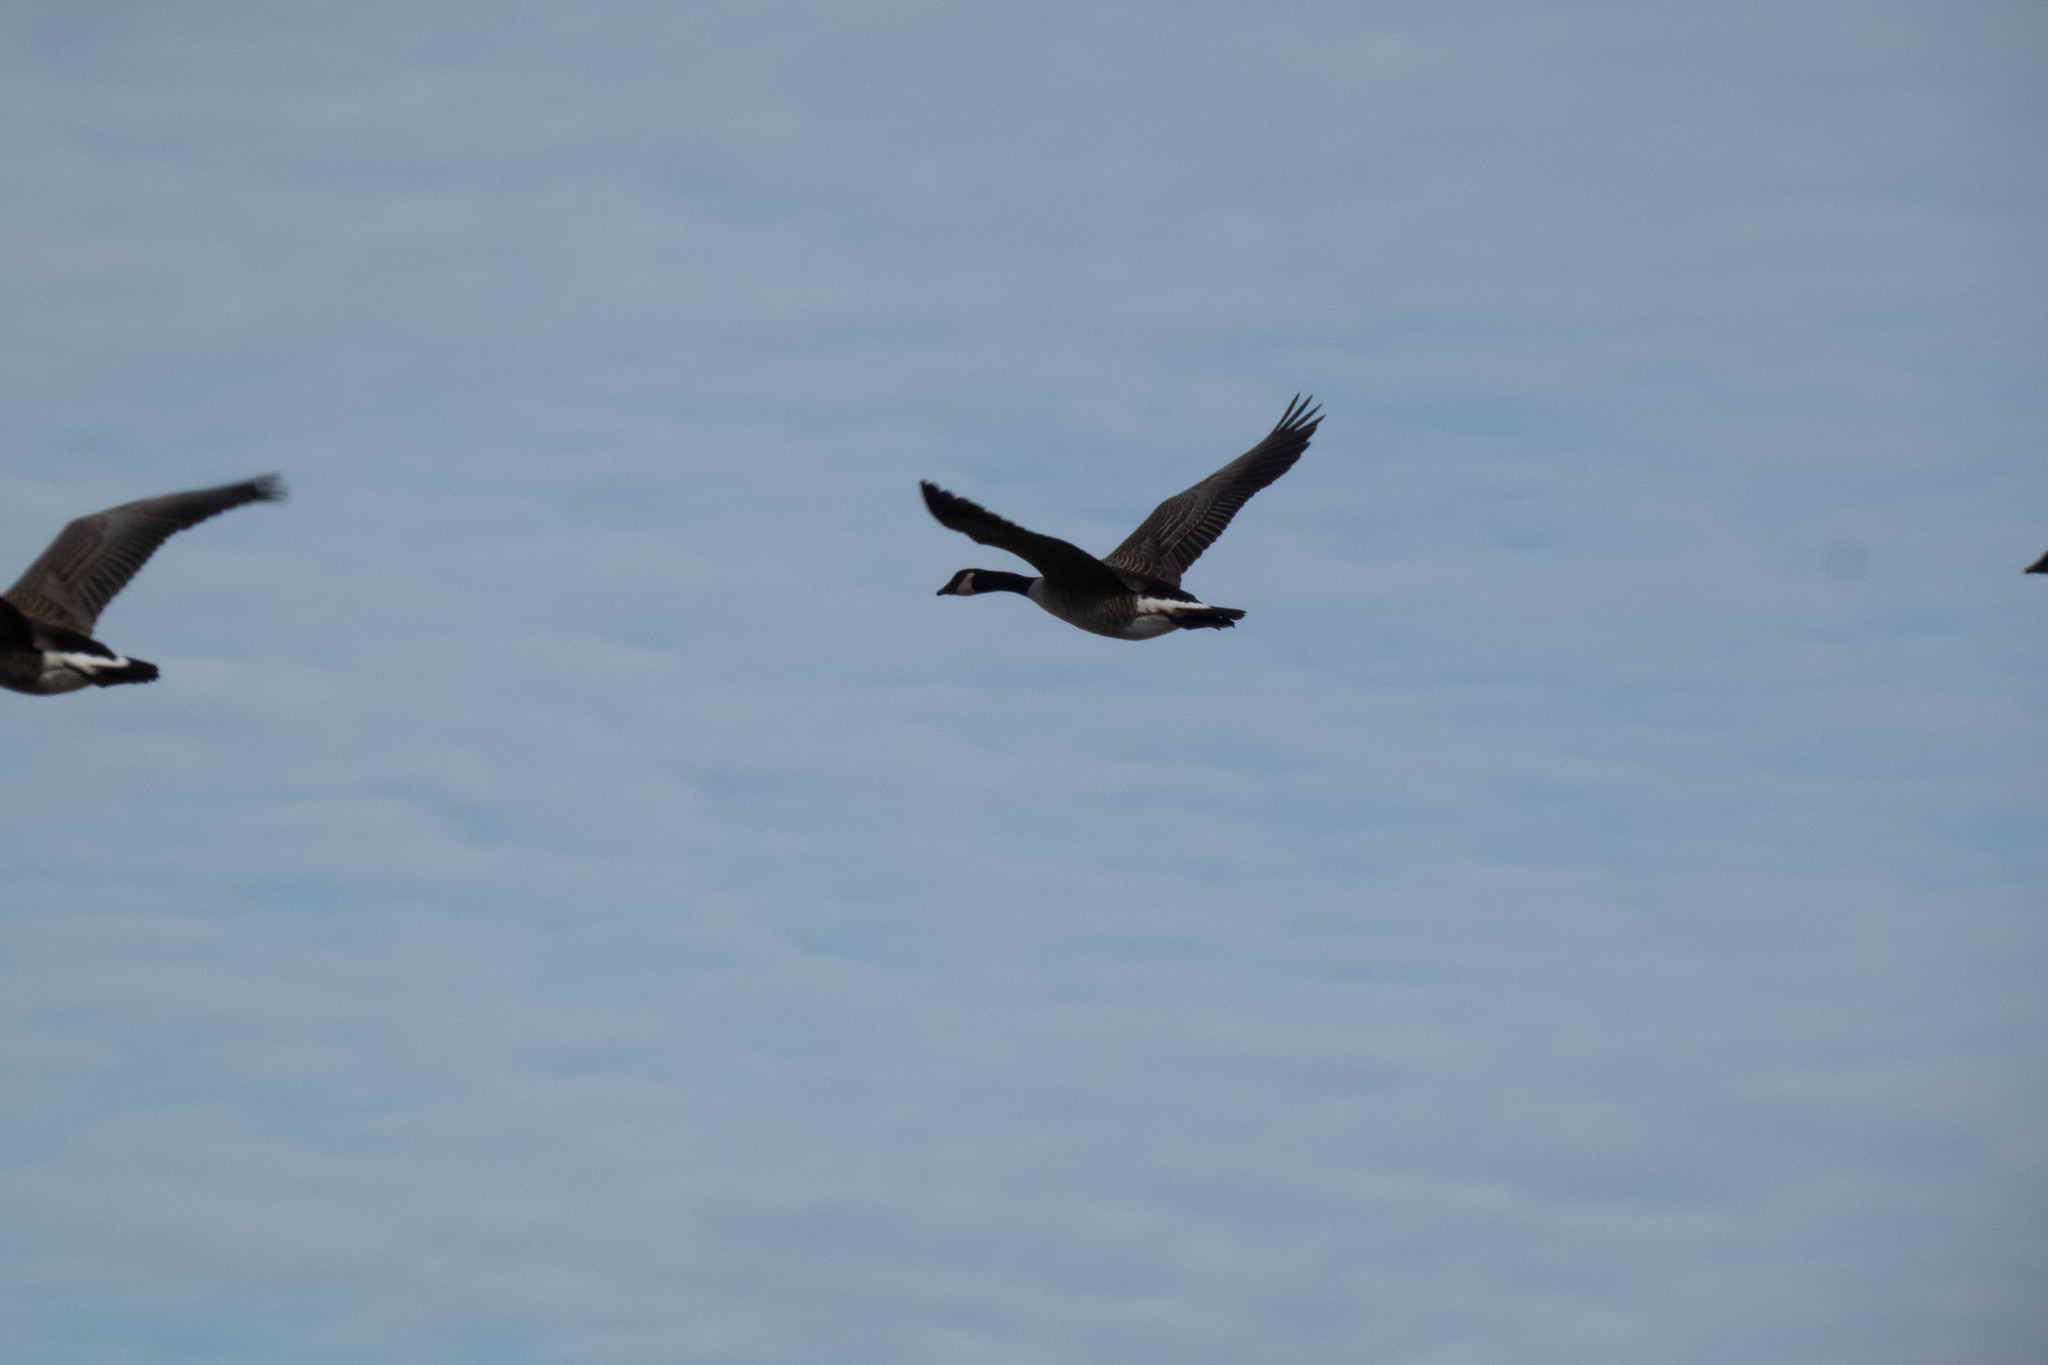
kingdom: Animalia
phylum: Chordata
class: Aves
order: Anseriformes
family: Anatidae
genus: Branta
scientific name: Branta canadensis
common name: Canada goose
